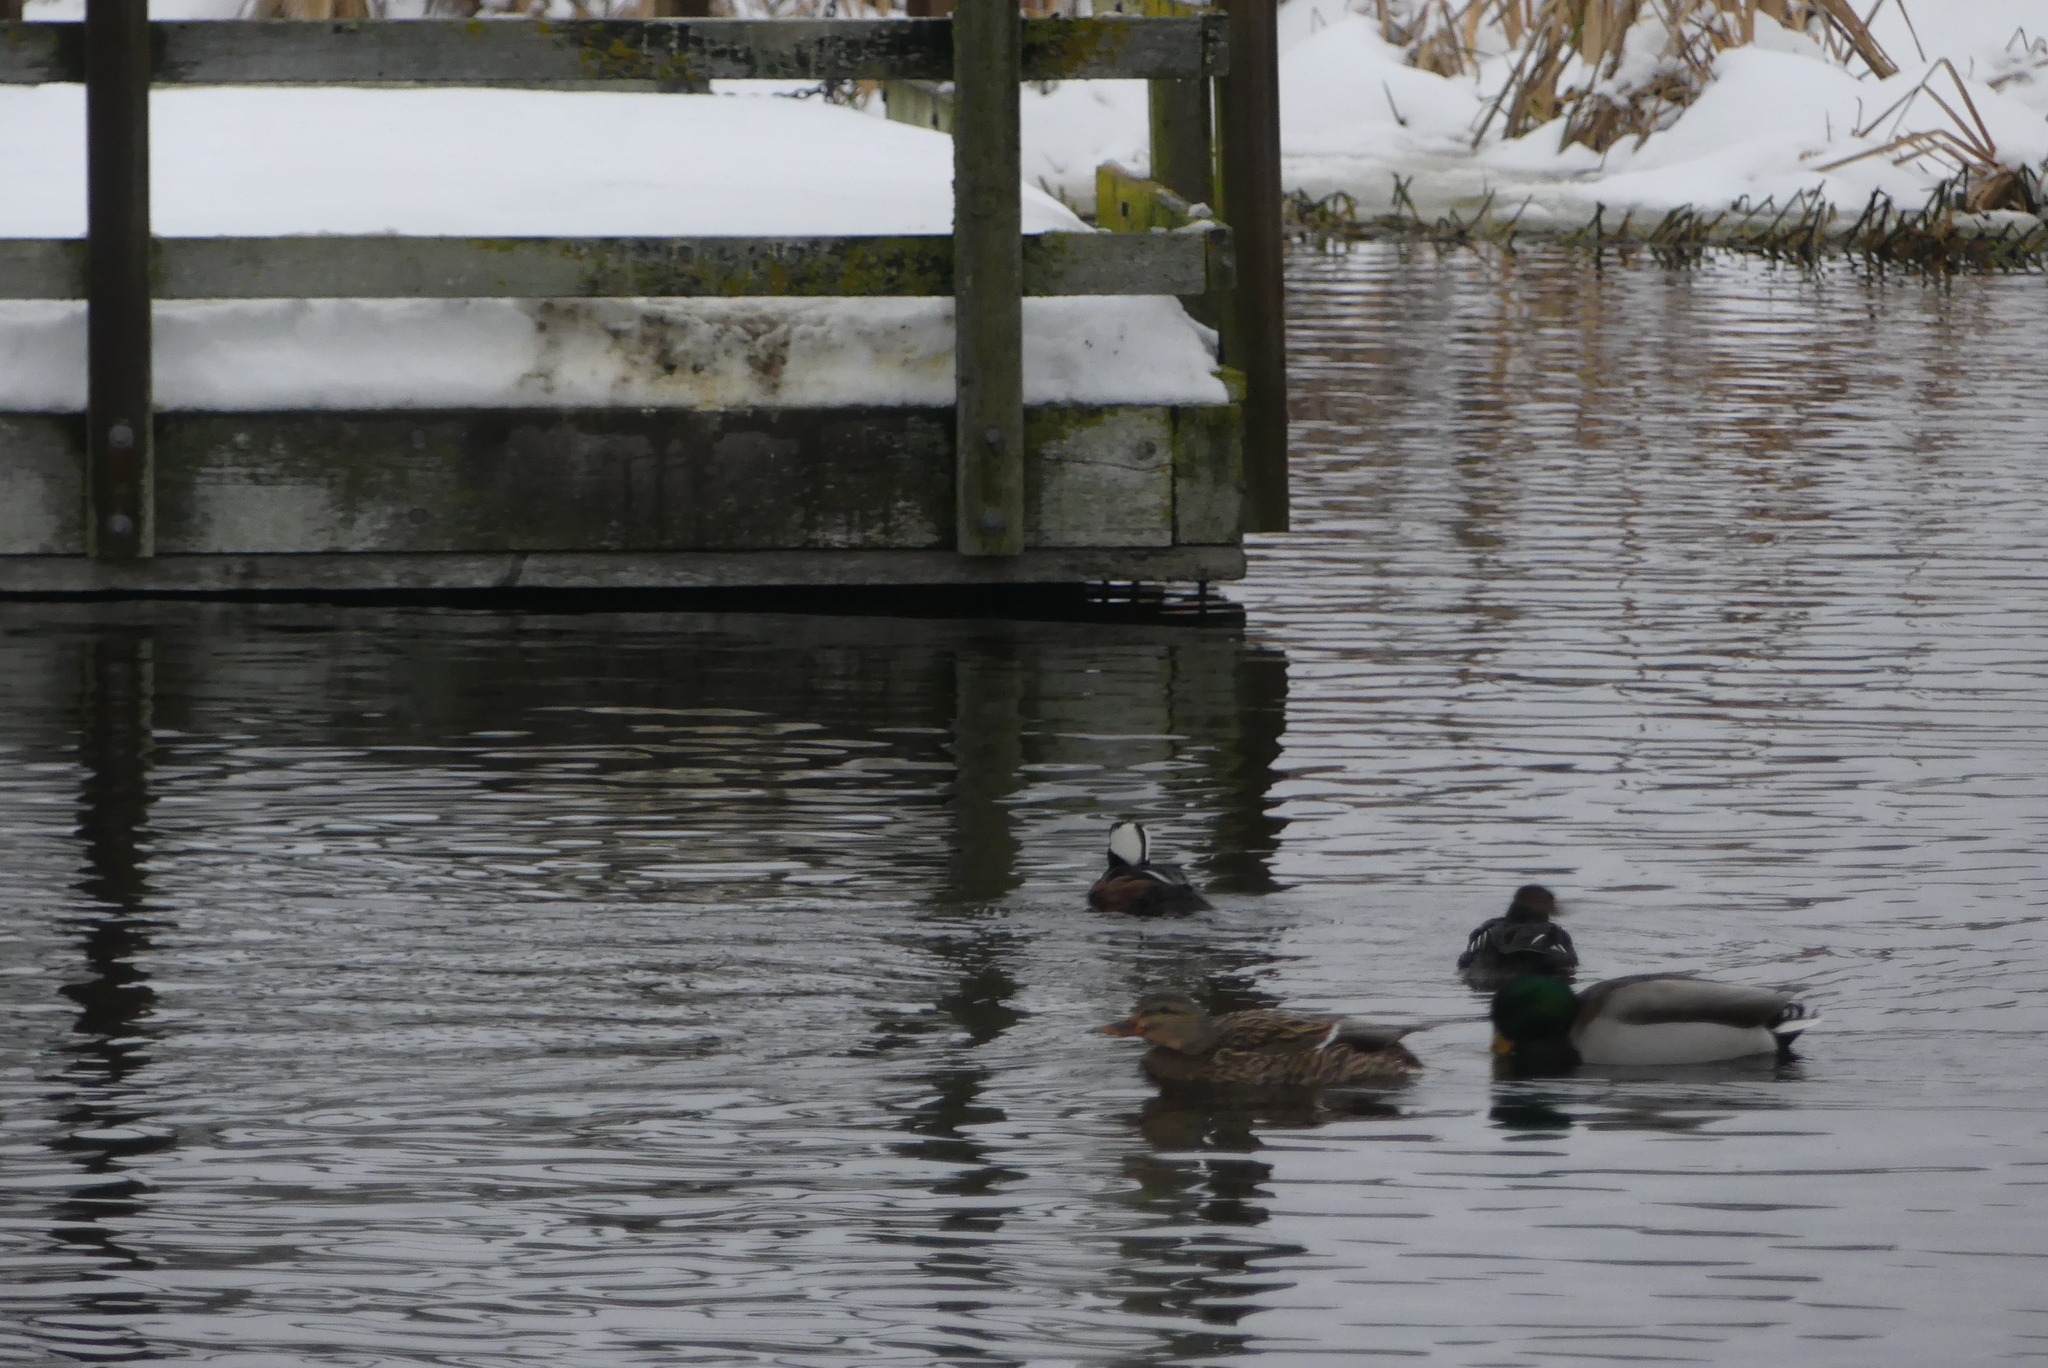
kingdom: Animalia
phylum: Chordata
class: Aves
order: Anseriformes
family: Anatidae
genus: Lophodytes
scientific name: Lophodytes cucullatus
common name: Hooded merganser
